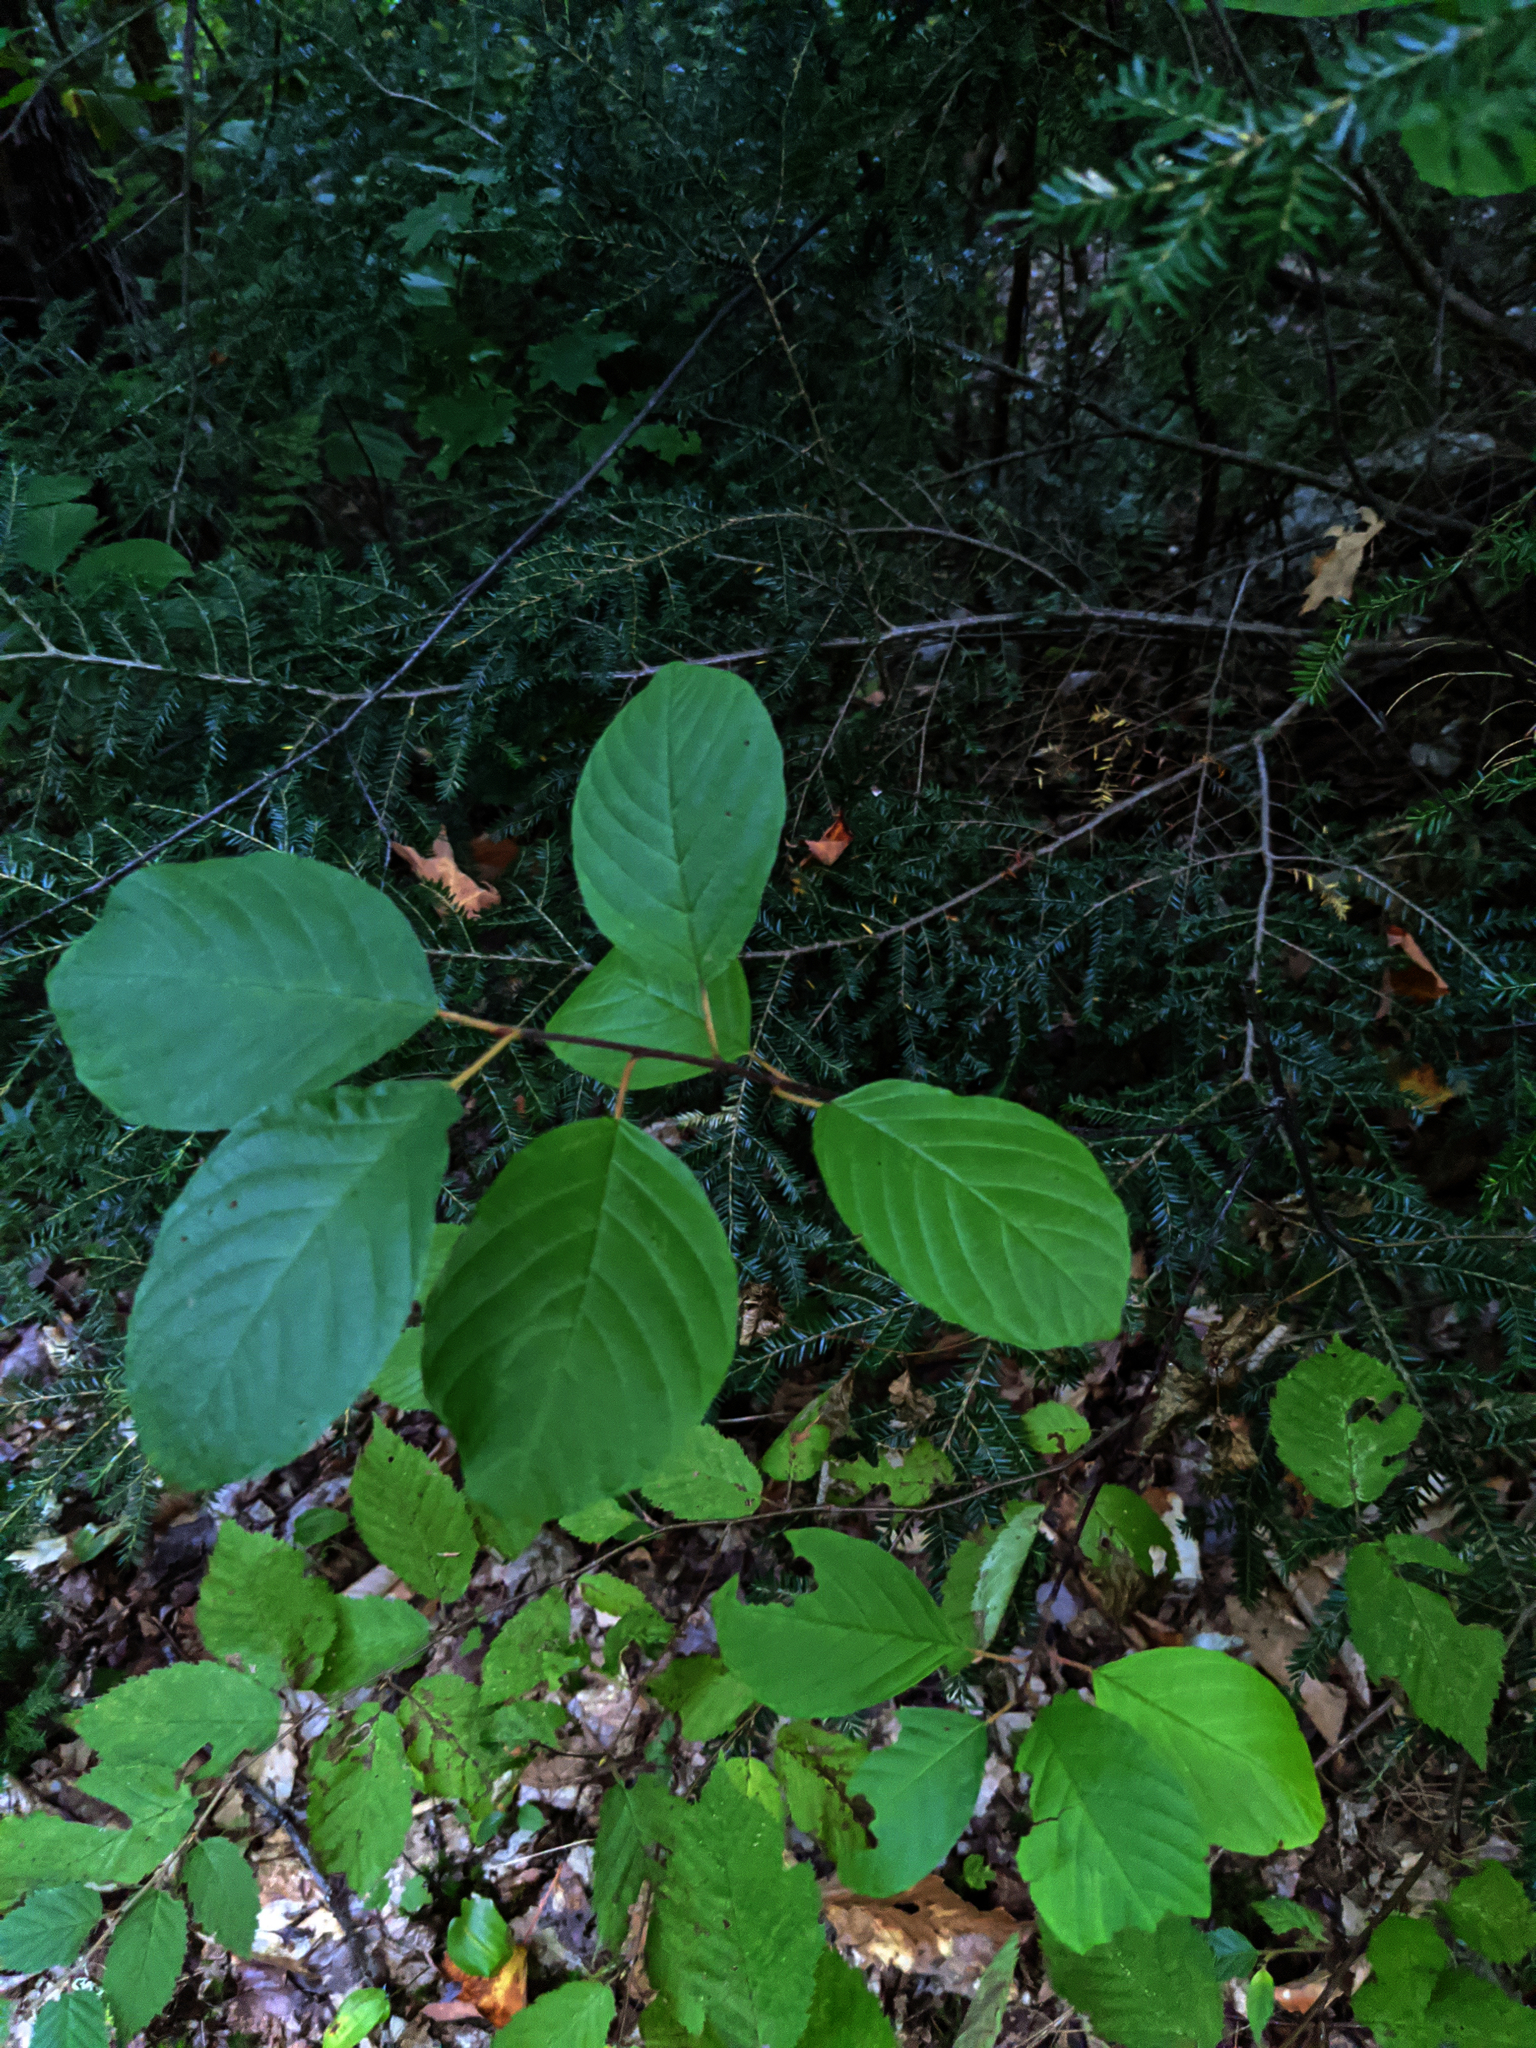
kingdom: Plantae
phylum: Tracheophyta
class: Magnoliopsida
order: Rosales
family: Rhamnaceae
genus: Frangula
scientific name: Frangula alnus
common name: Alder buckthorn
